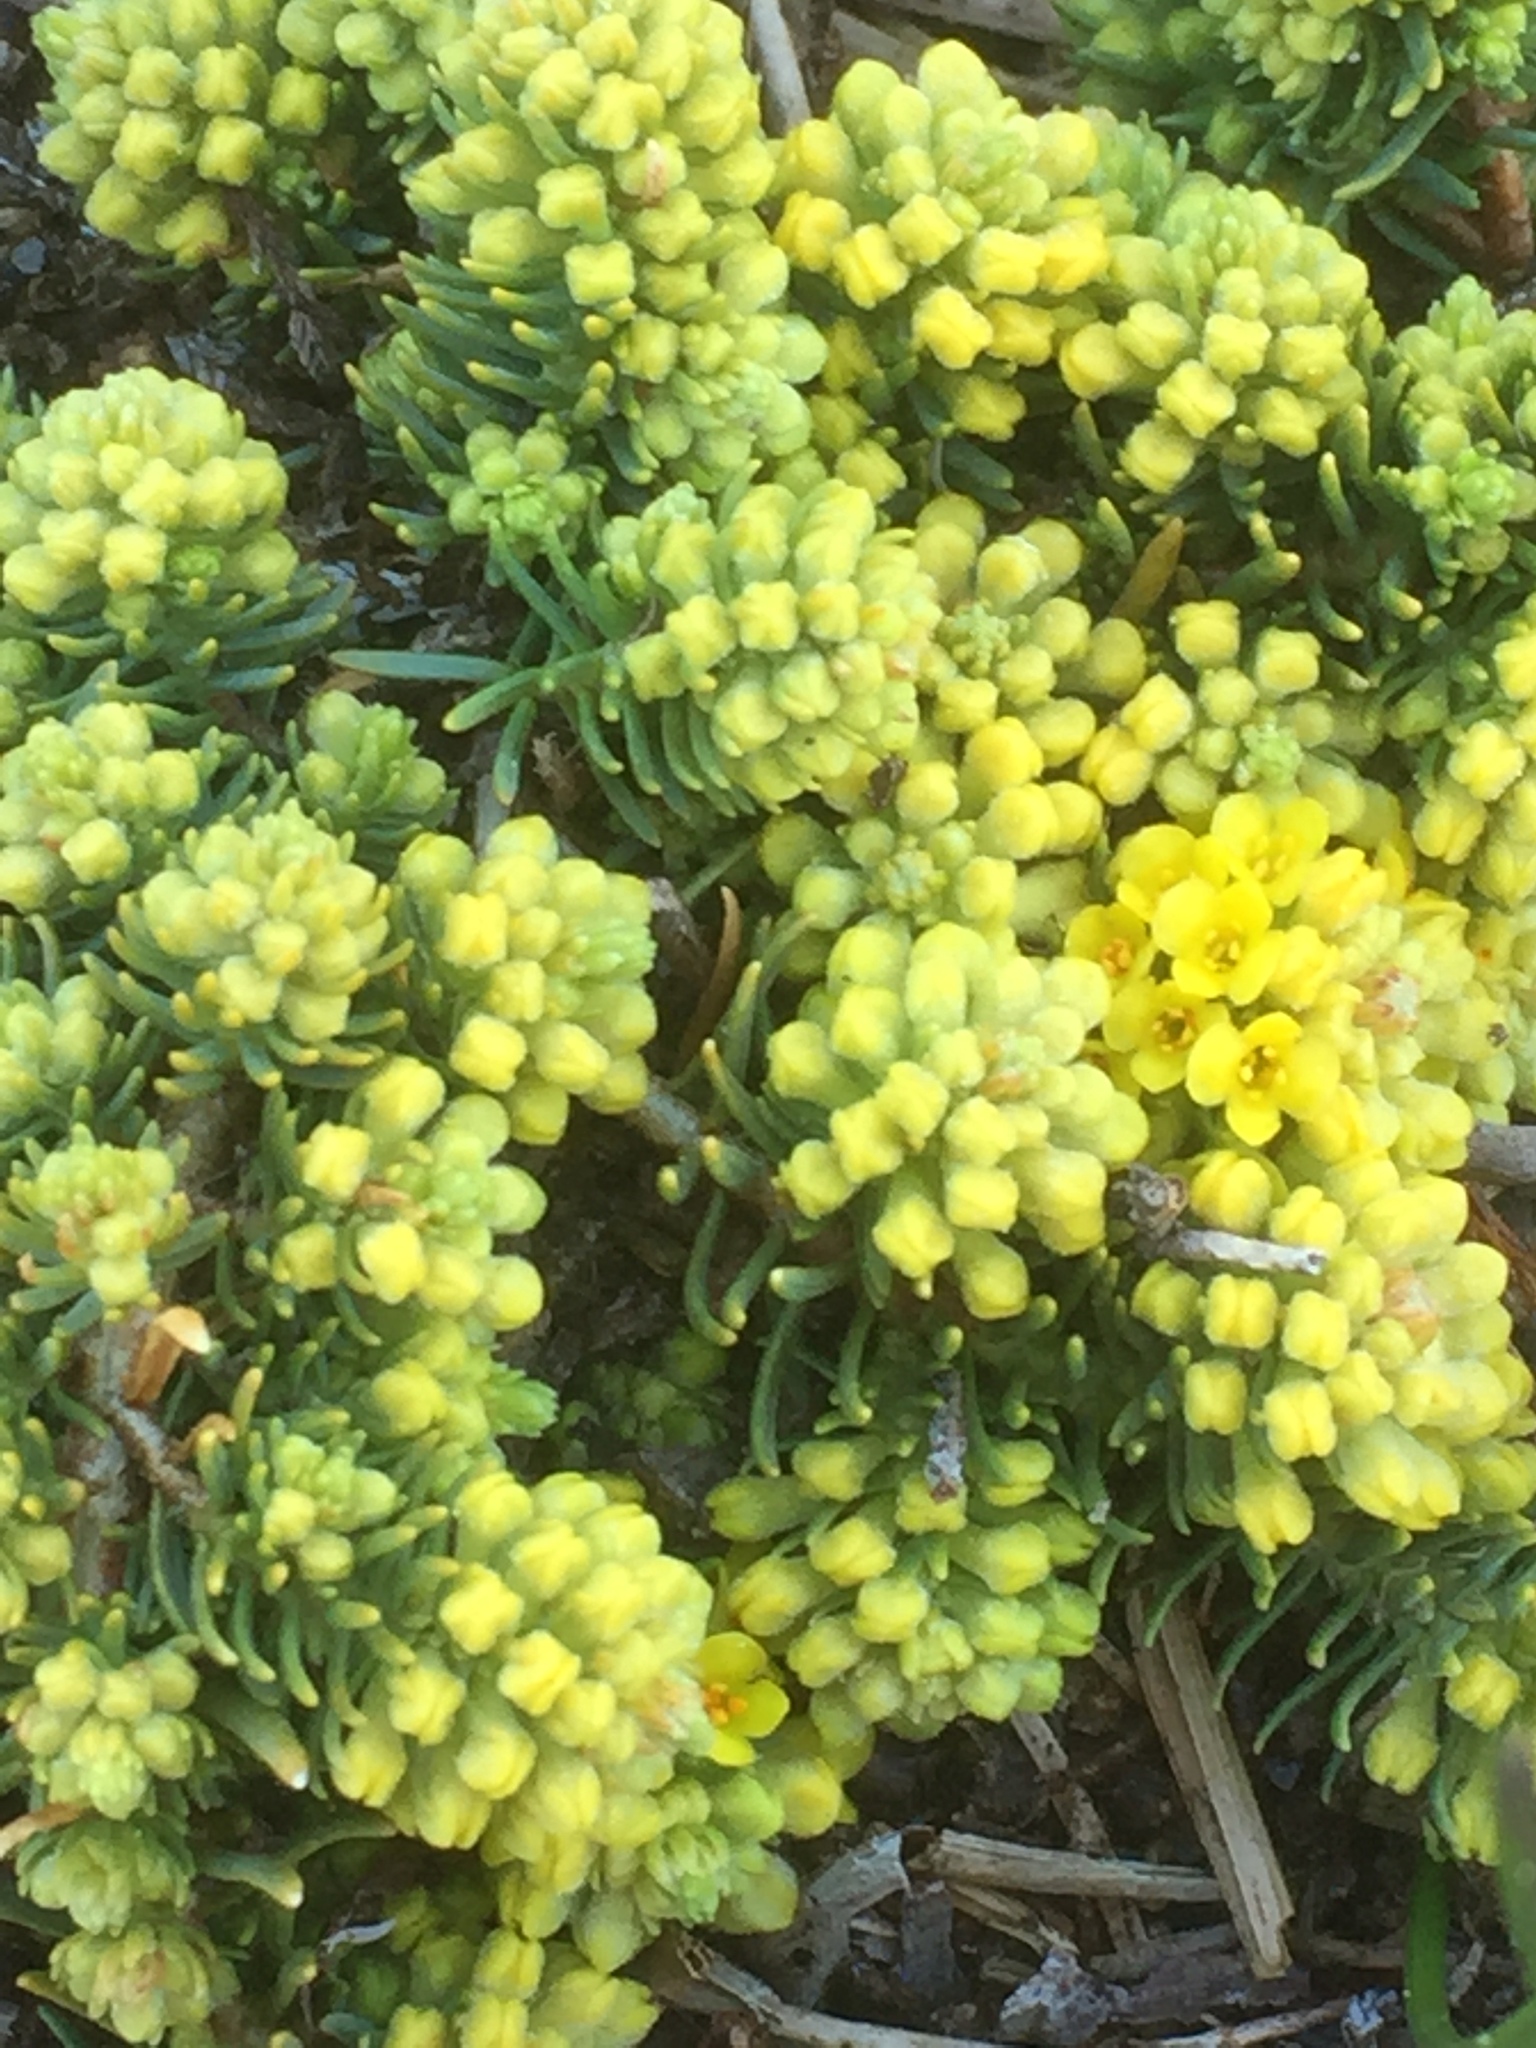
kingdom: Plantae
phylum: Tracheophyta
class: Magnoliopsida
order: Malvales
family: Thymelaeaceae
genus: Thymelaea
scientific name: Thymelaea coridifolia
